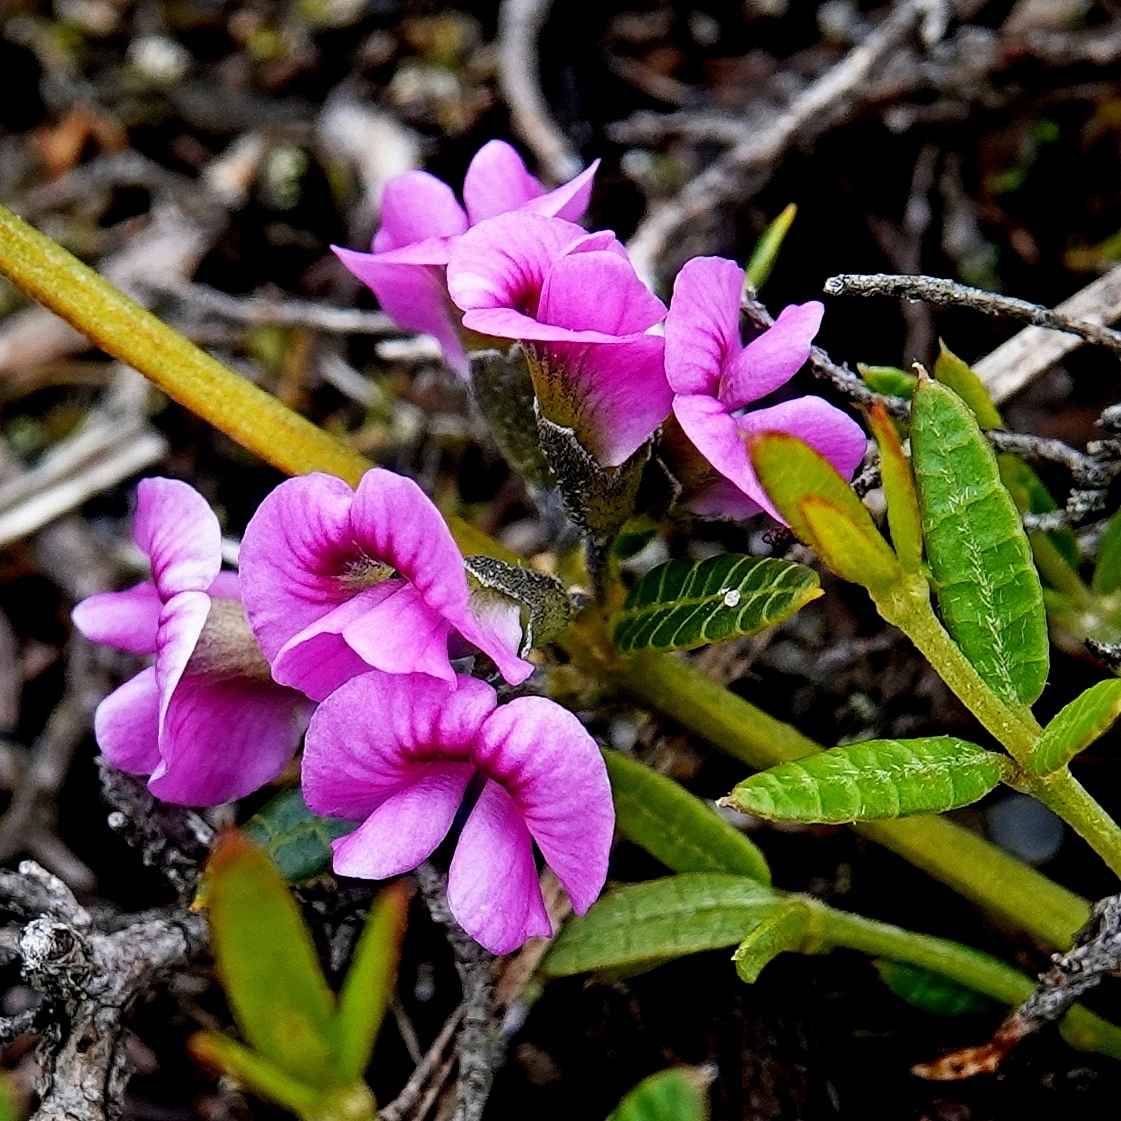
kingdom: Plantae
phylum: Tracheophyta
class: Magnoliopsida
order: Fabales
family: Fabaceae
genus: Mirbelia
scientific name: Mirbelia rubiifolia
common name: Heathy mirbelia
